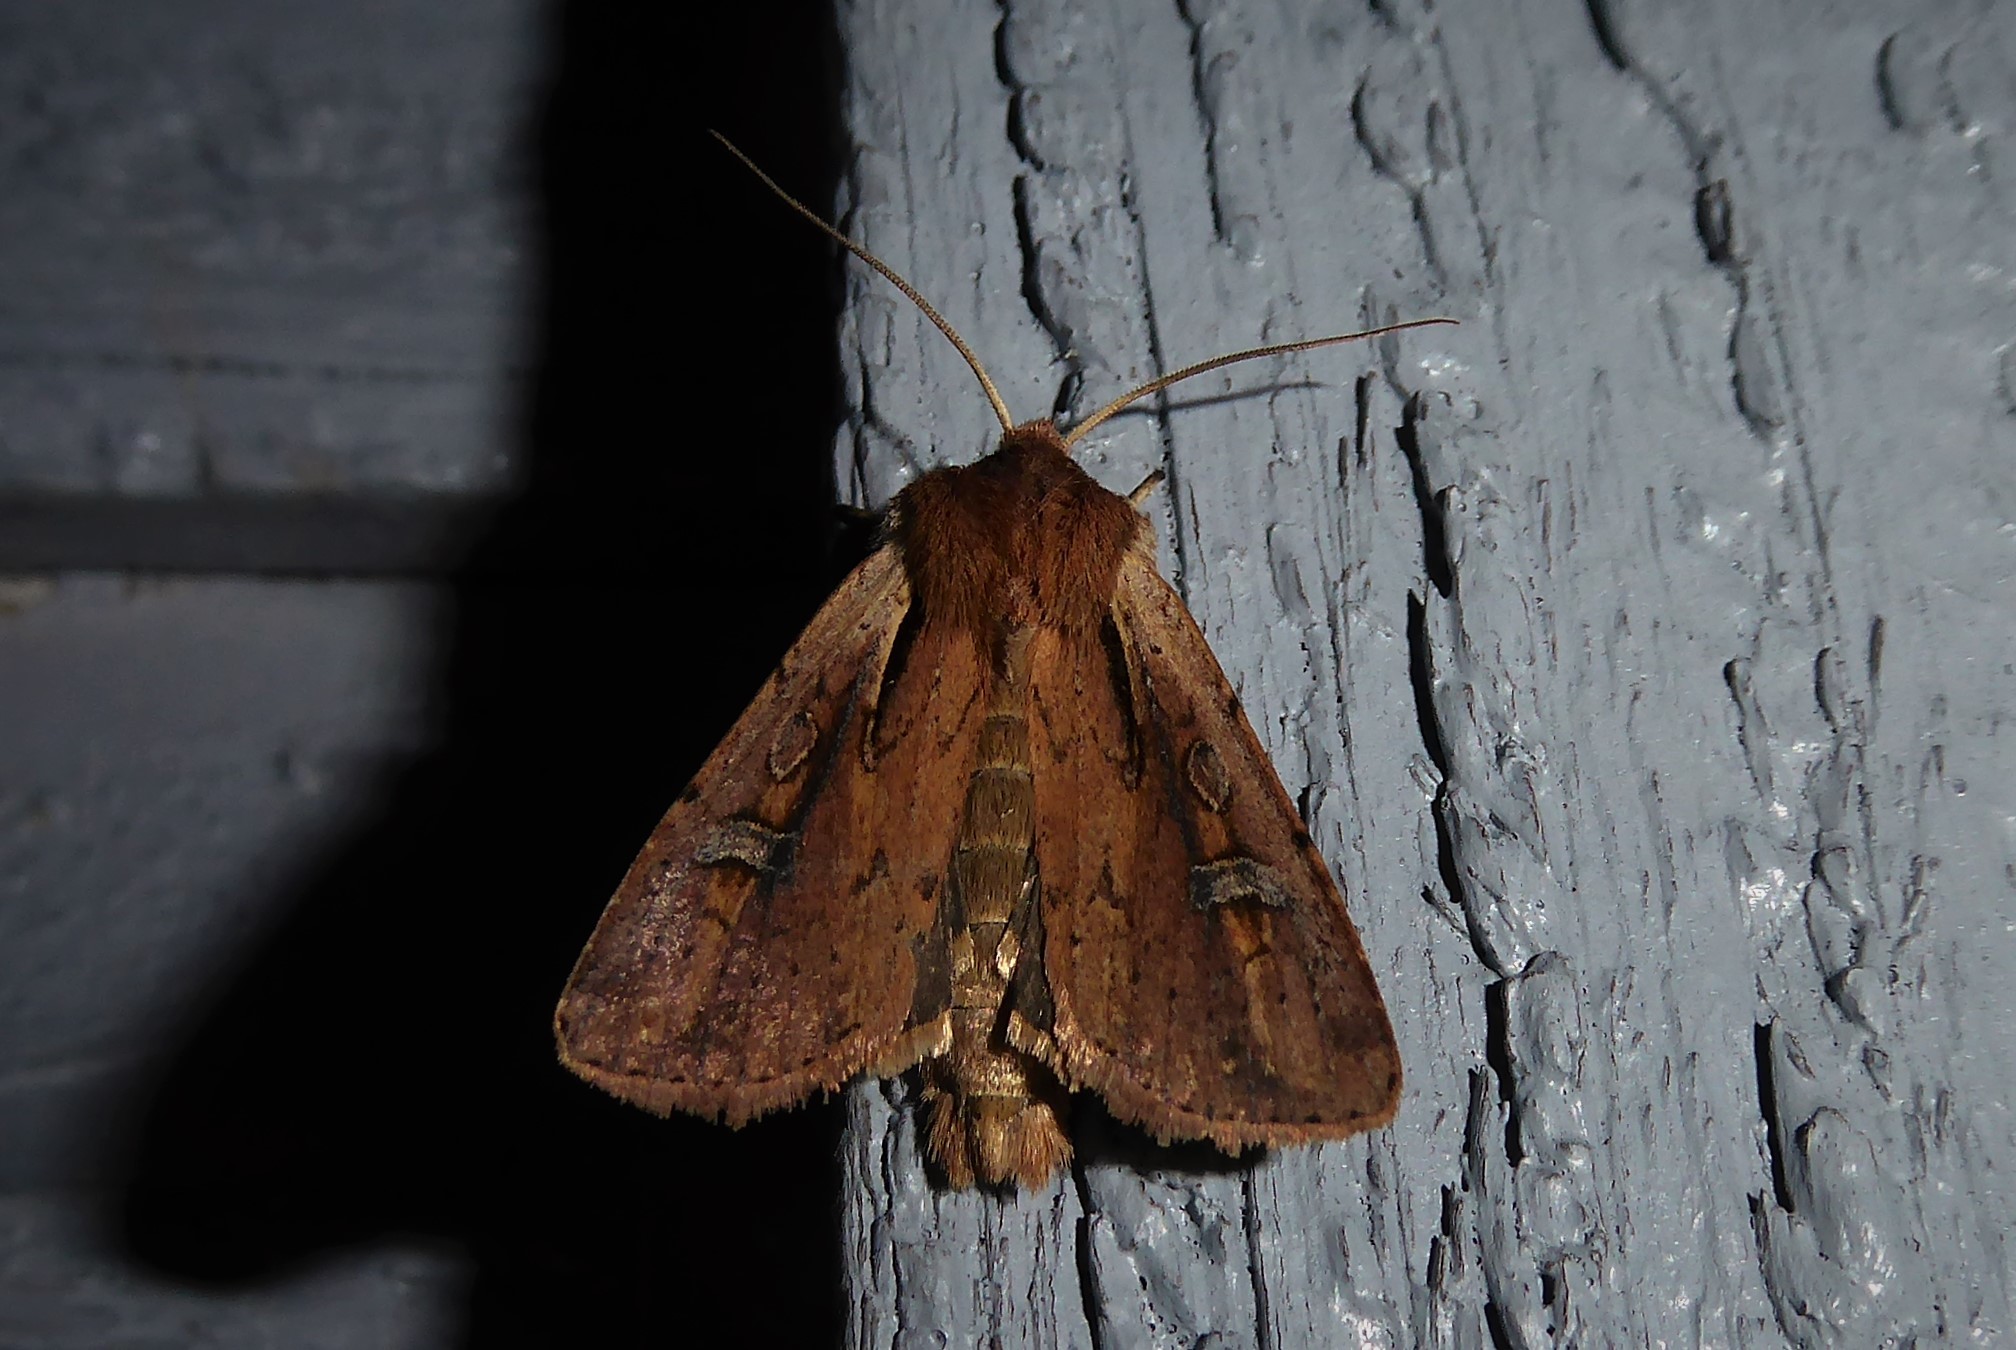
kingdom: Animalia
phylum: Arthropoda
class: Insecta
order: Lepidoptera
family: Noctuidae
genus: Ichneutica
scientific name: Ichneutica atristriga
